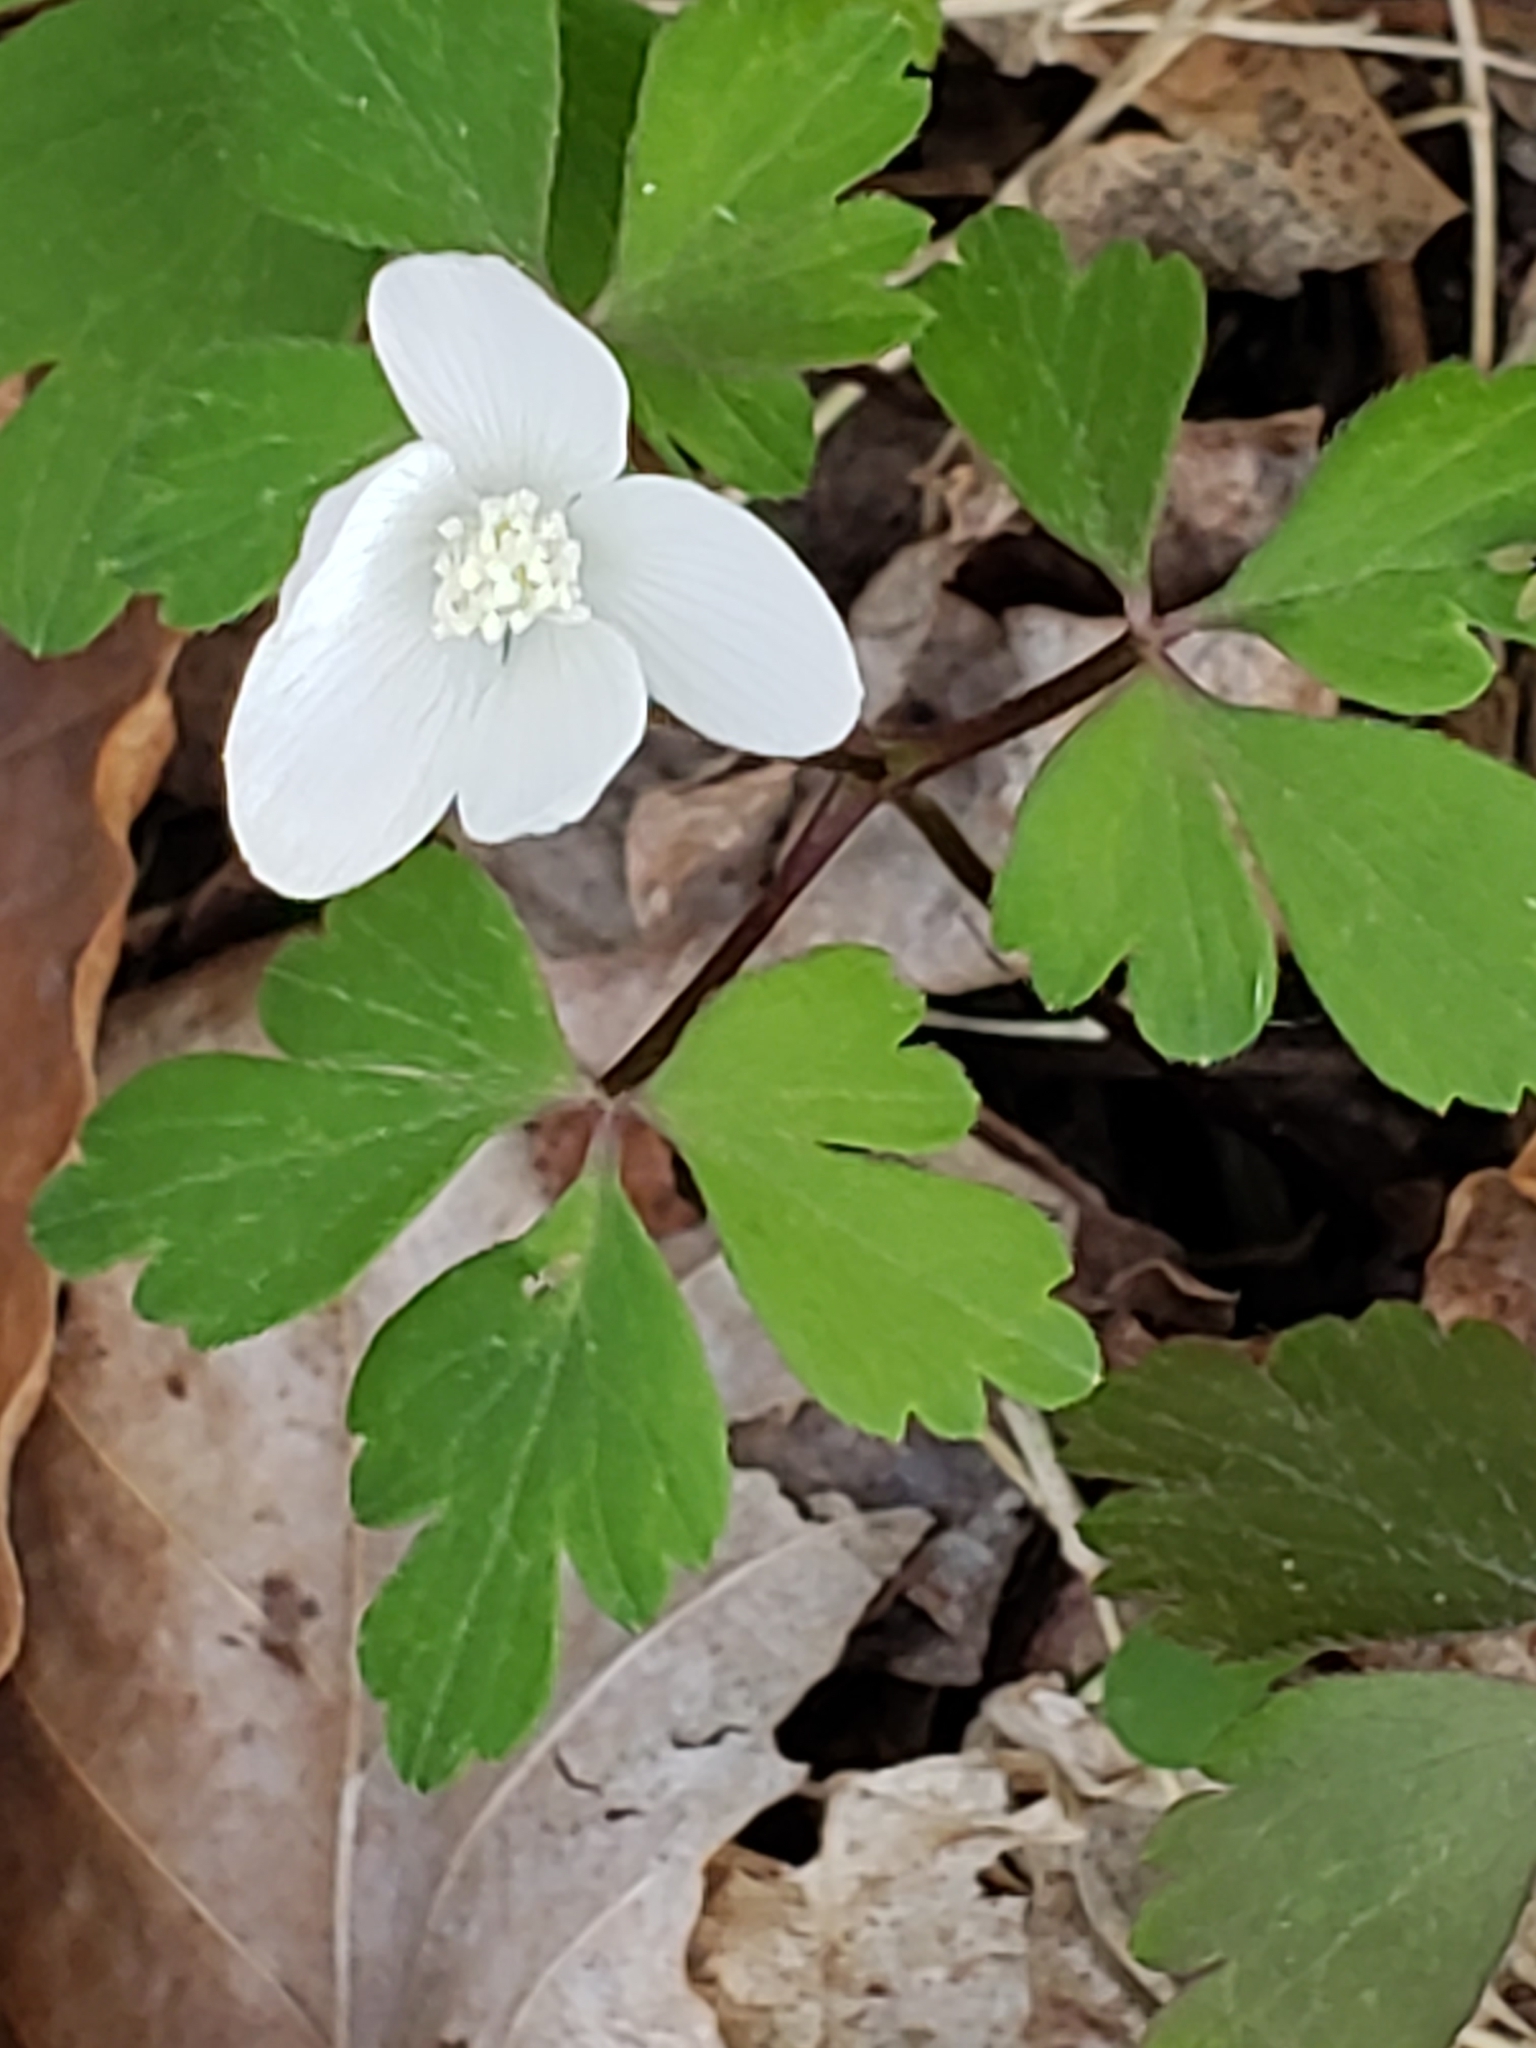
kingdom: Plantae
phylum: Tracheophyta
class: Magnoliopsida
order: Ranunculales
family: Ranunculaceae
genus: Anemone
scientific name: Anemone quinquefolia
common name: Wood anemone
